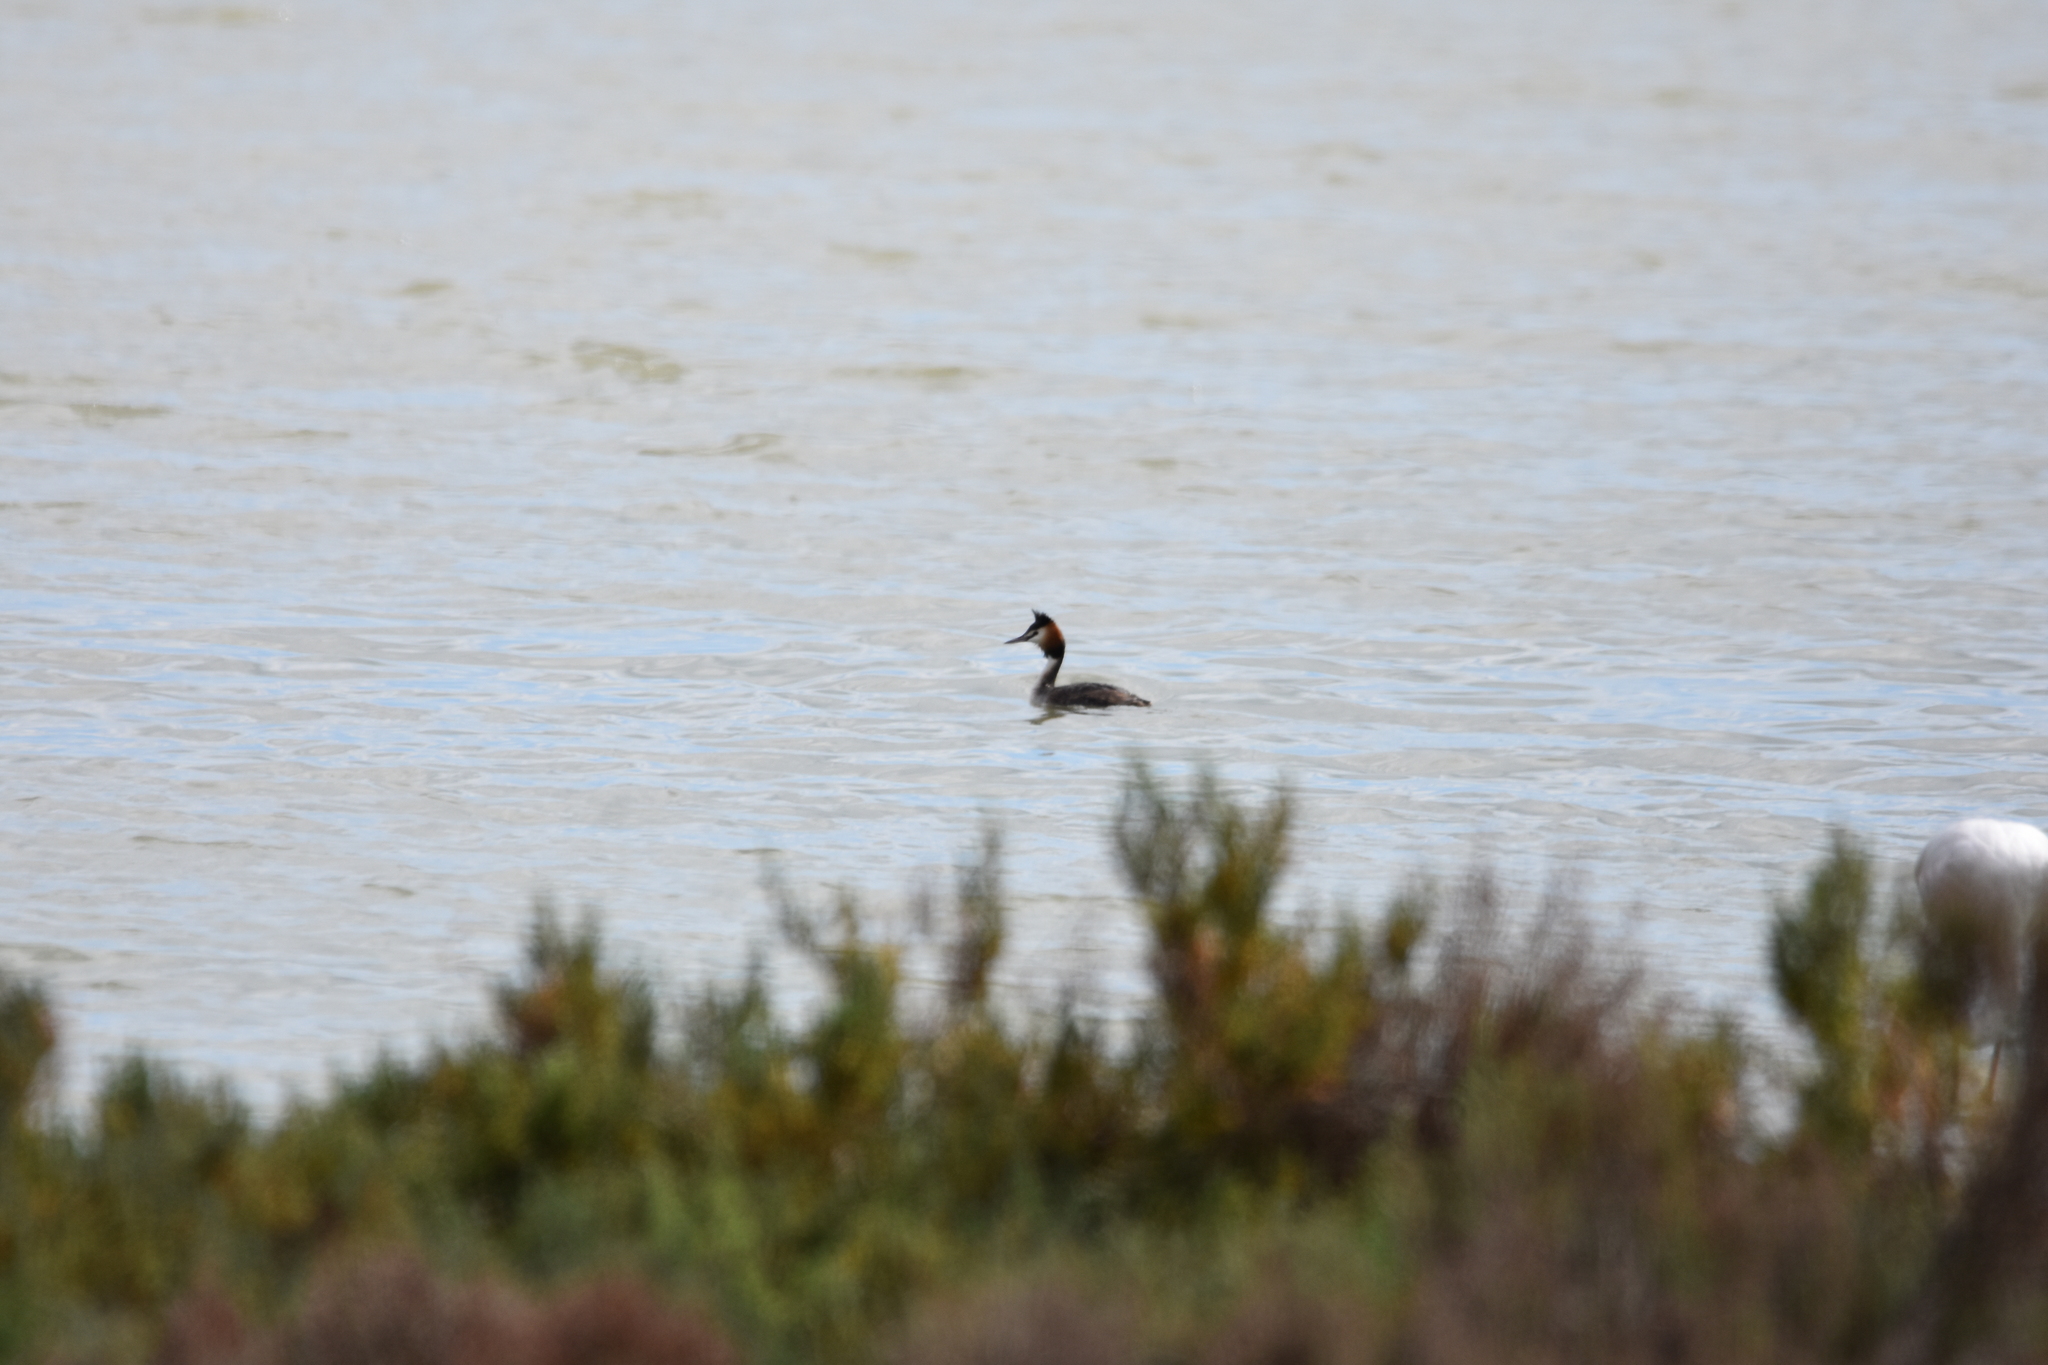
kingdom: Animalia
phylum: Chordata
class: Aves
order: Podicipediformes
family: Podicipedidae
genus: Podiceps
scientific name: Podiceps cristatus
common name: Great crested grebe
